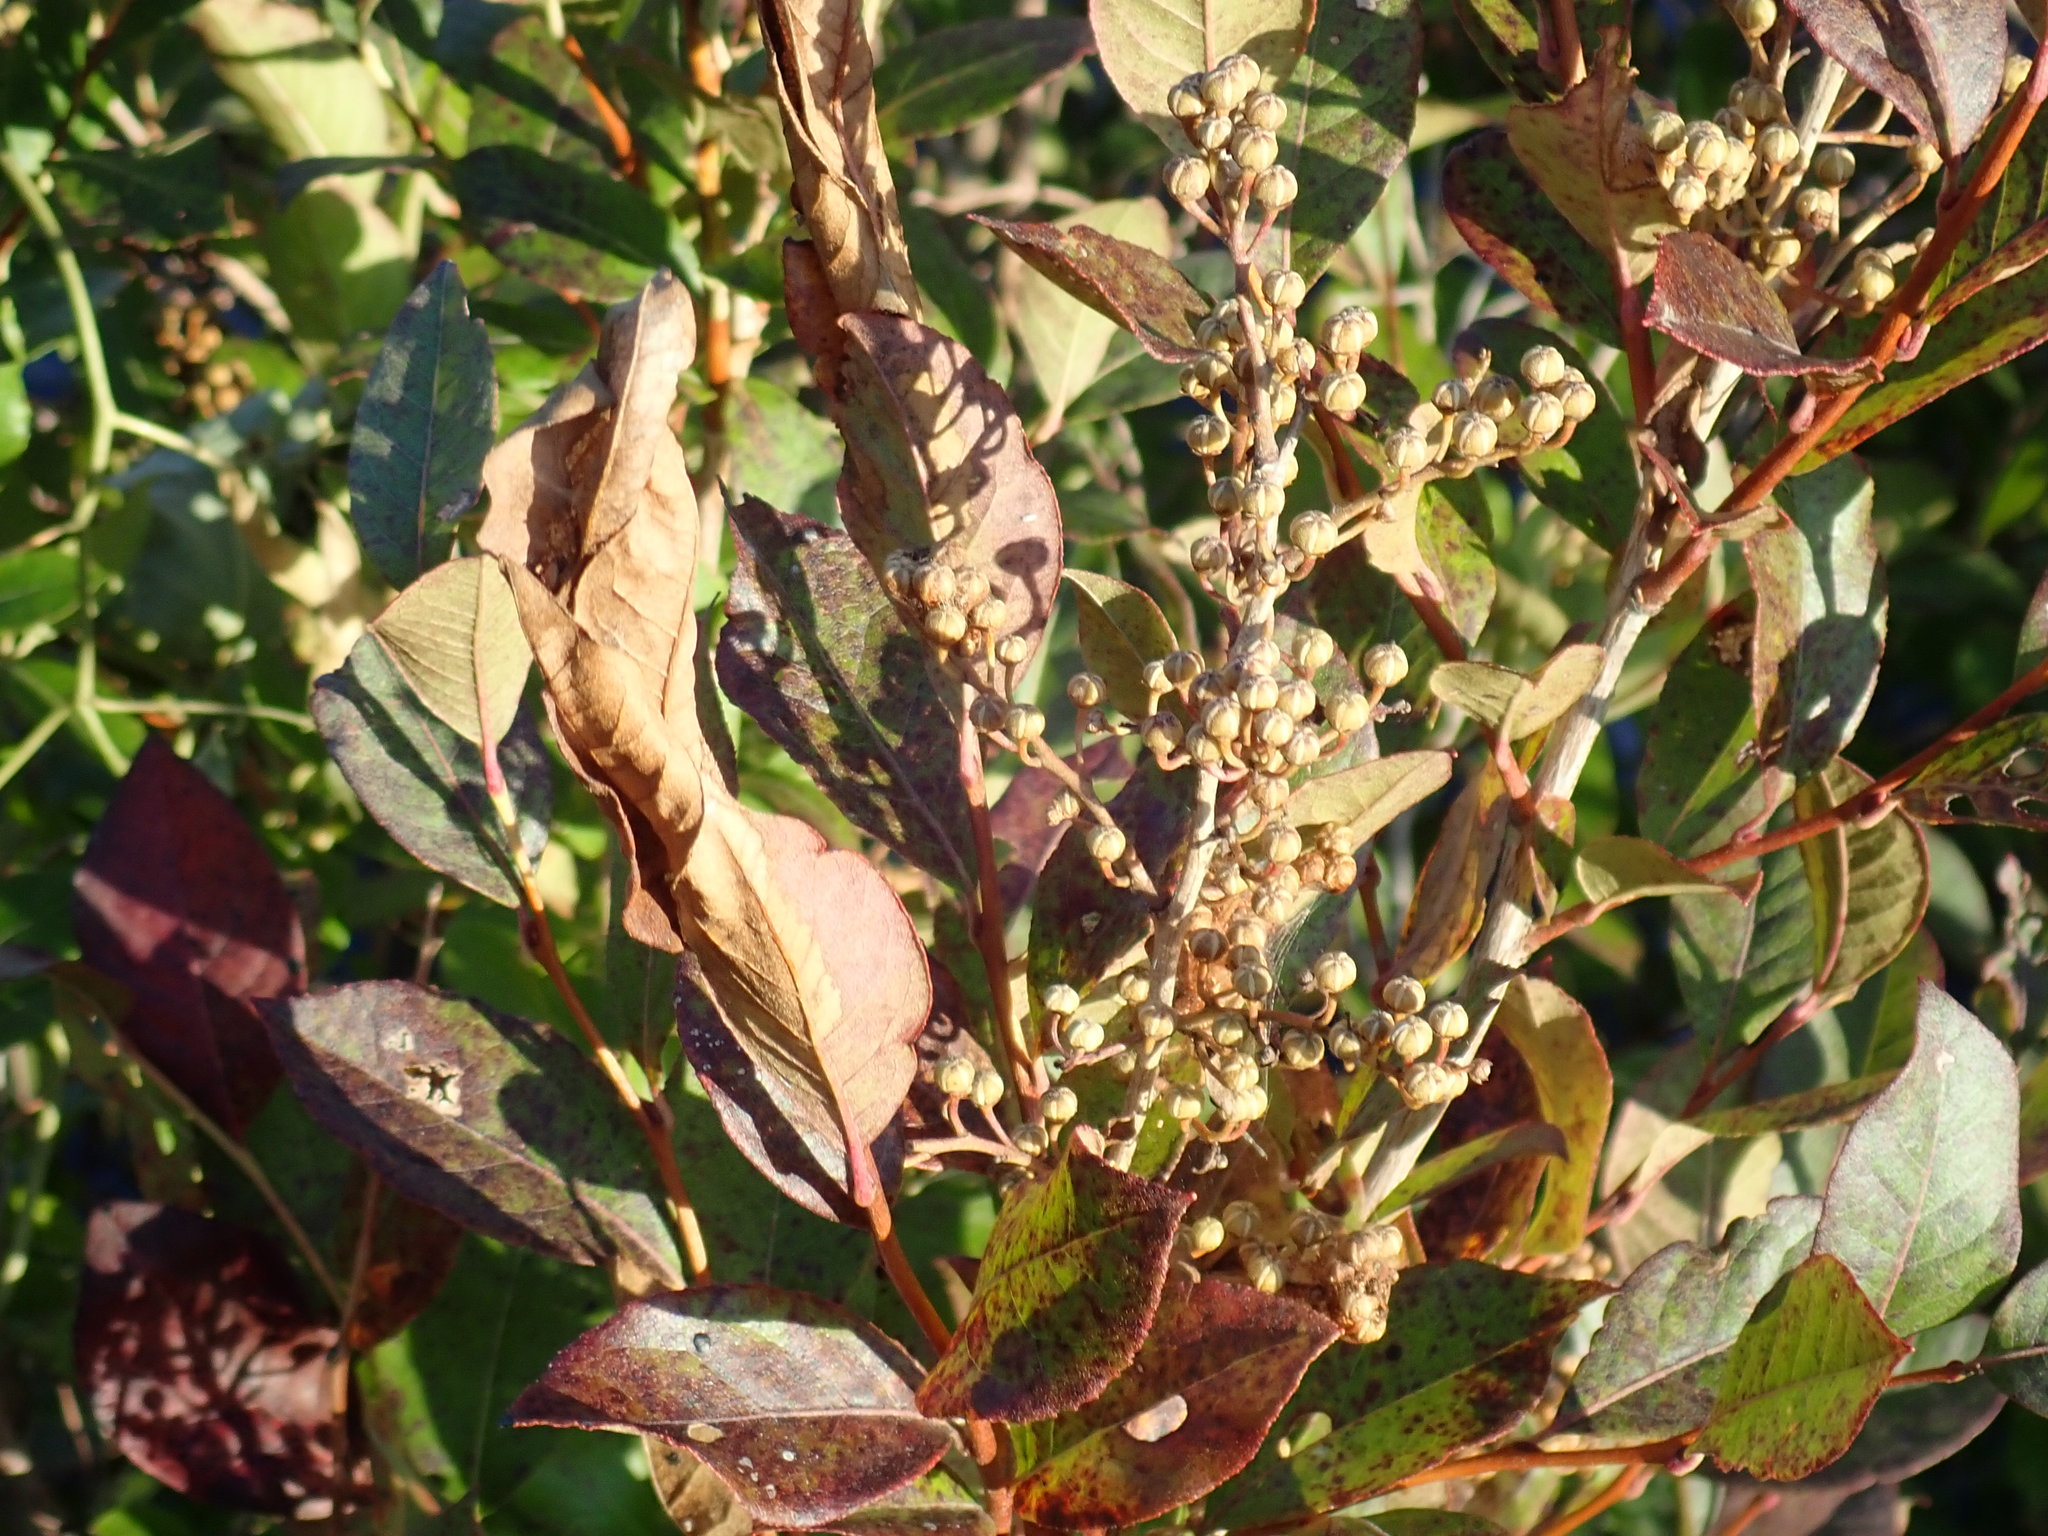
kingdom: Plantae
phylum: Tracheophyta
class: Magnoliopsida
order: Ericales
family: Ericaceae
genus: Lyonia
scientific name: Lyonia ligustrina
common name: Maleberry
